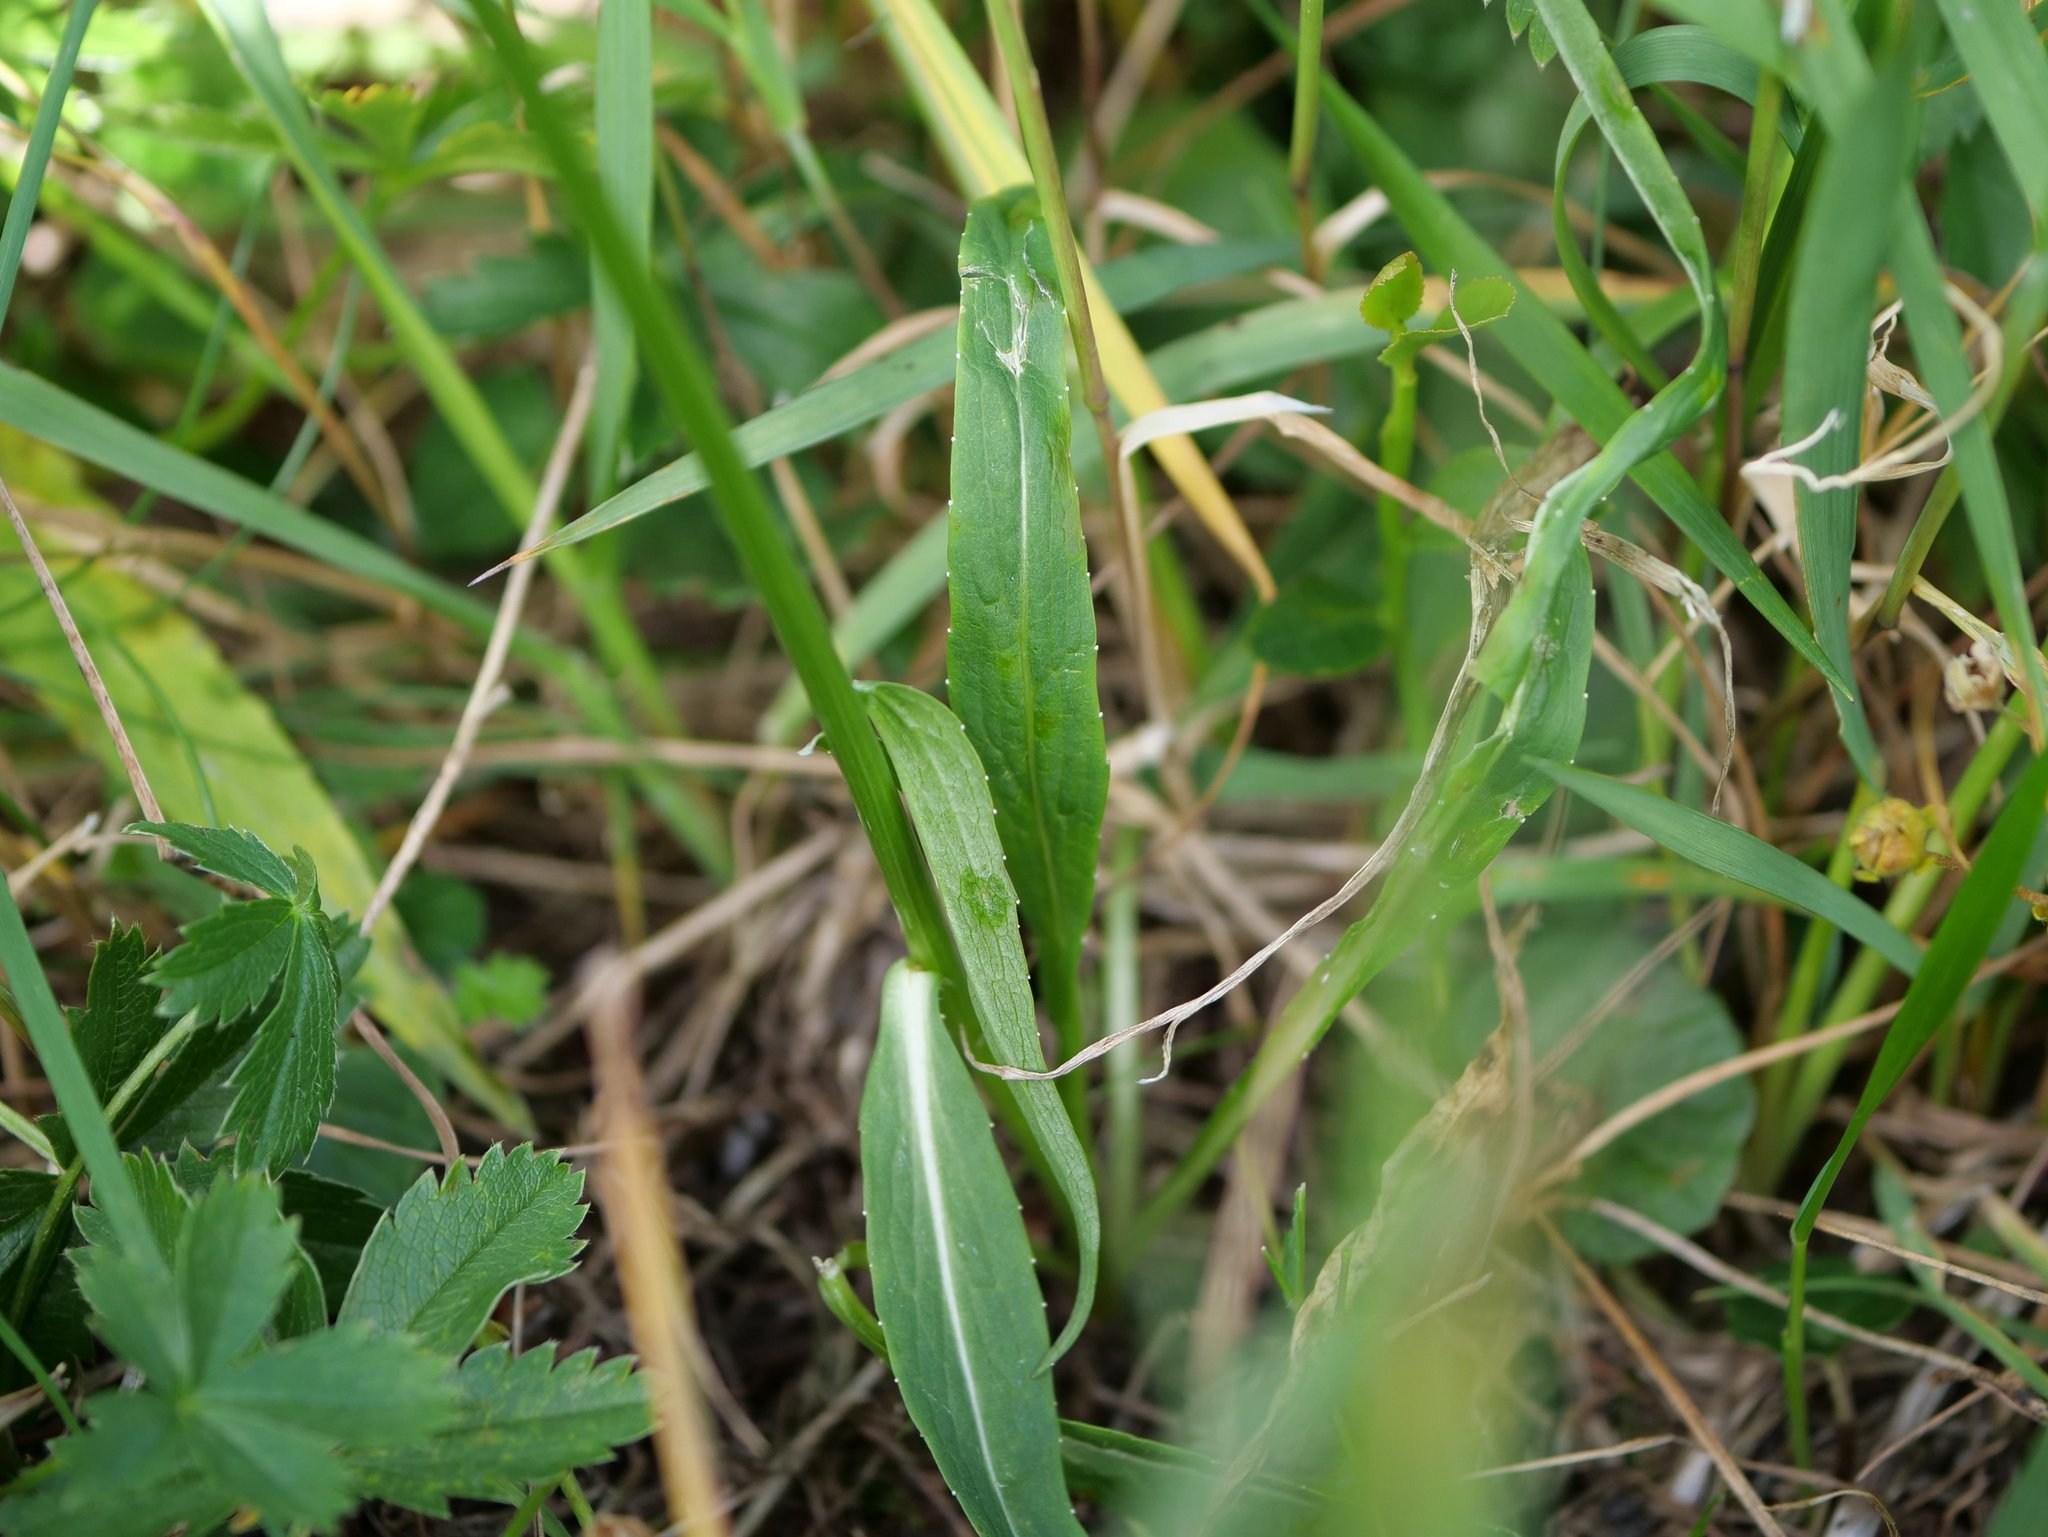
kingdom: Plantae
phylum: Tracheophyta
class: Magnoliopsida
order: Asterales
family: Campanulaceae
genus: Phyteuma
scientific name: Phyteuma betonicifolium
